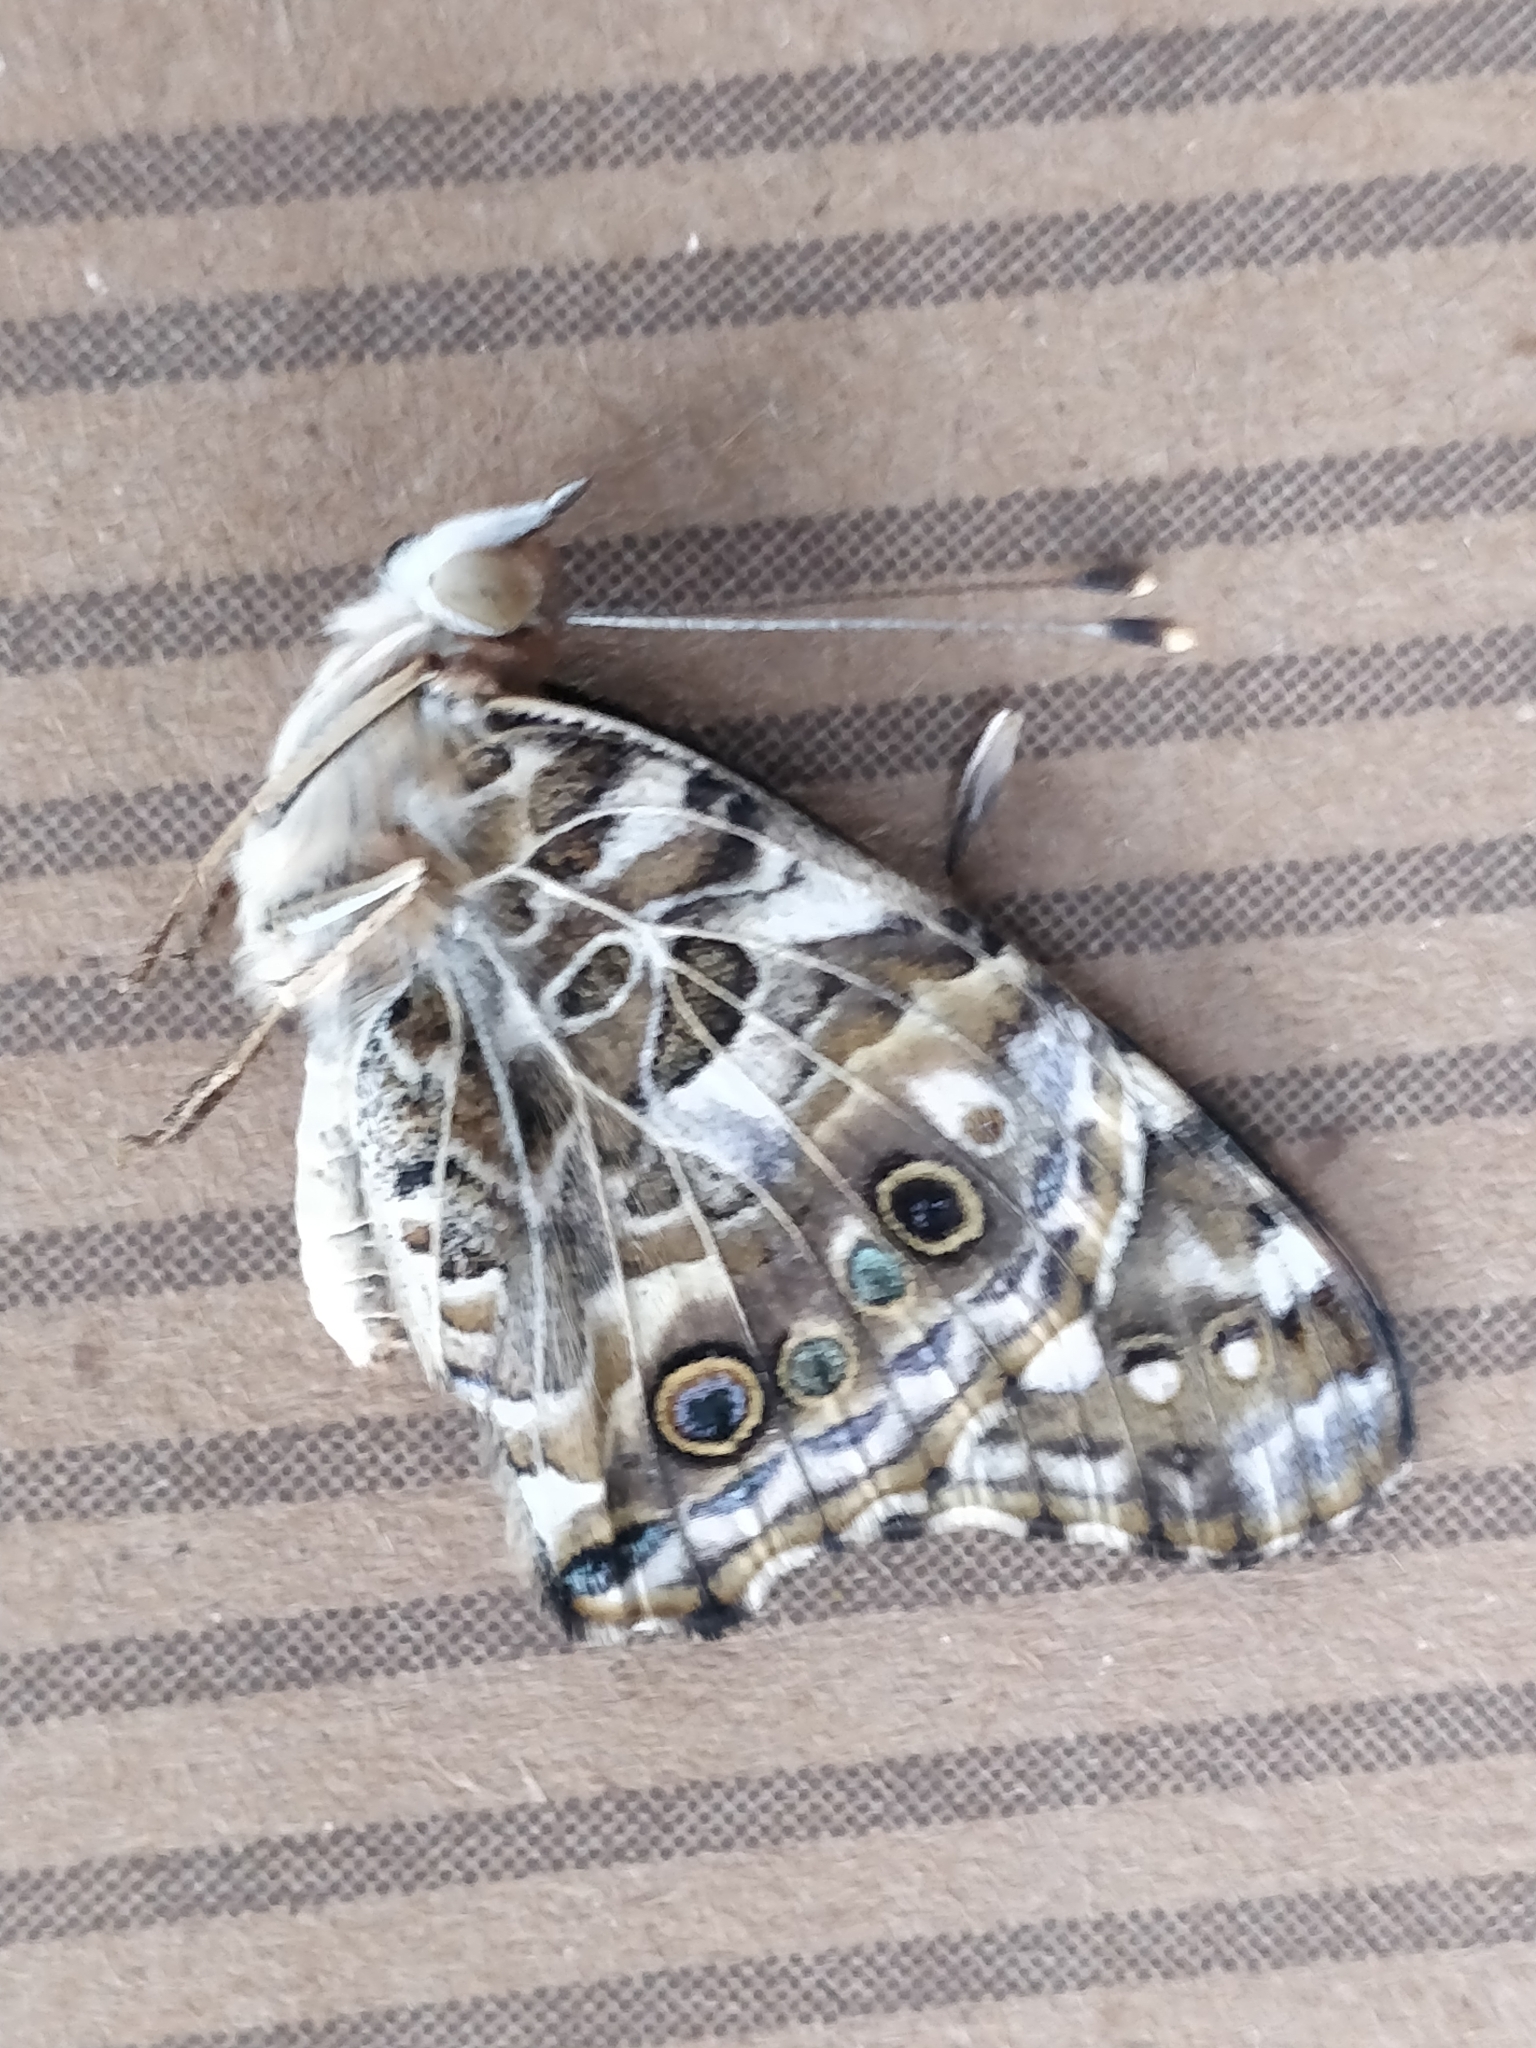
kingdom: Animalia
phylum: Arthropoda
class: Insecta
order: Lepidoptera
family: Nymphalidae
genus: Vanessa
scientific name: Vanessa cardui
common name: Painted lady
